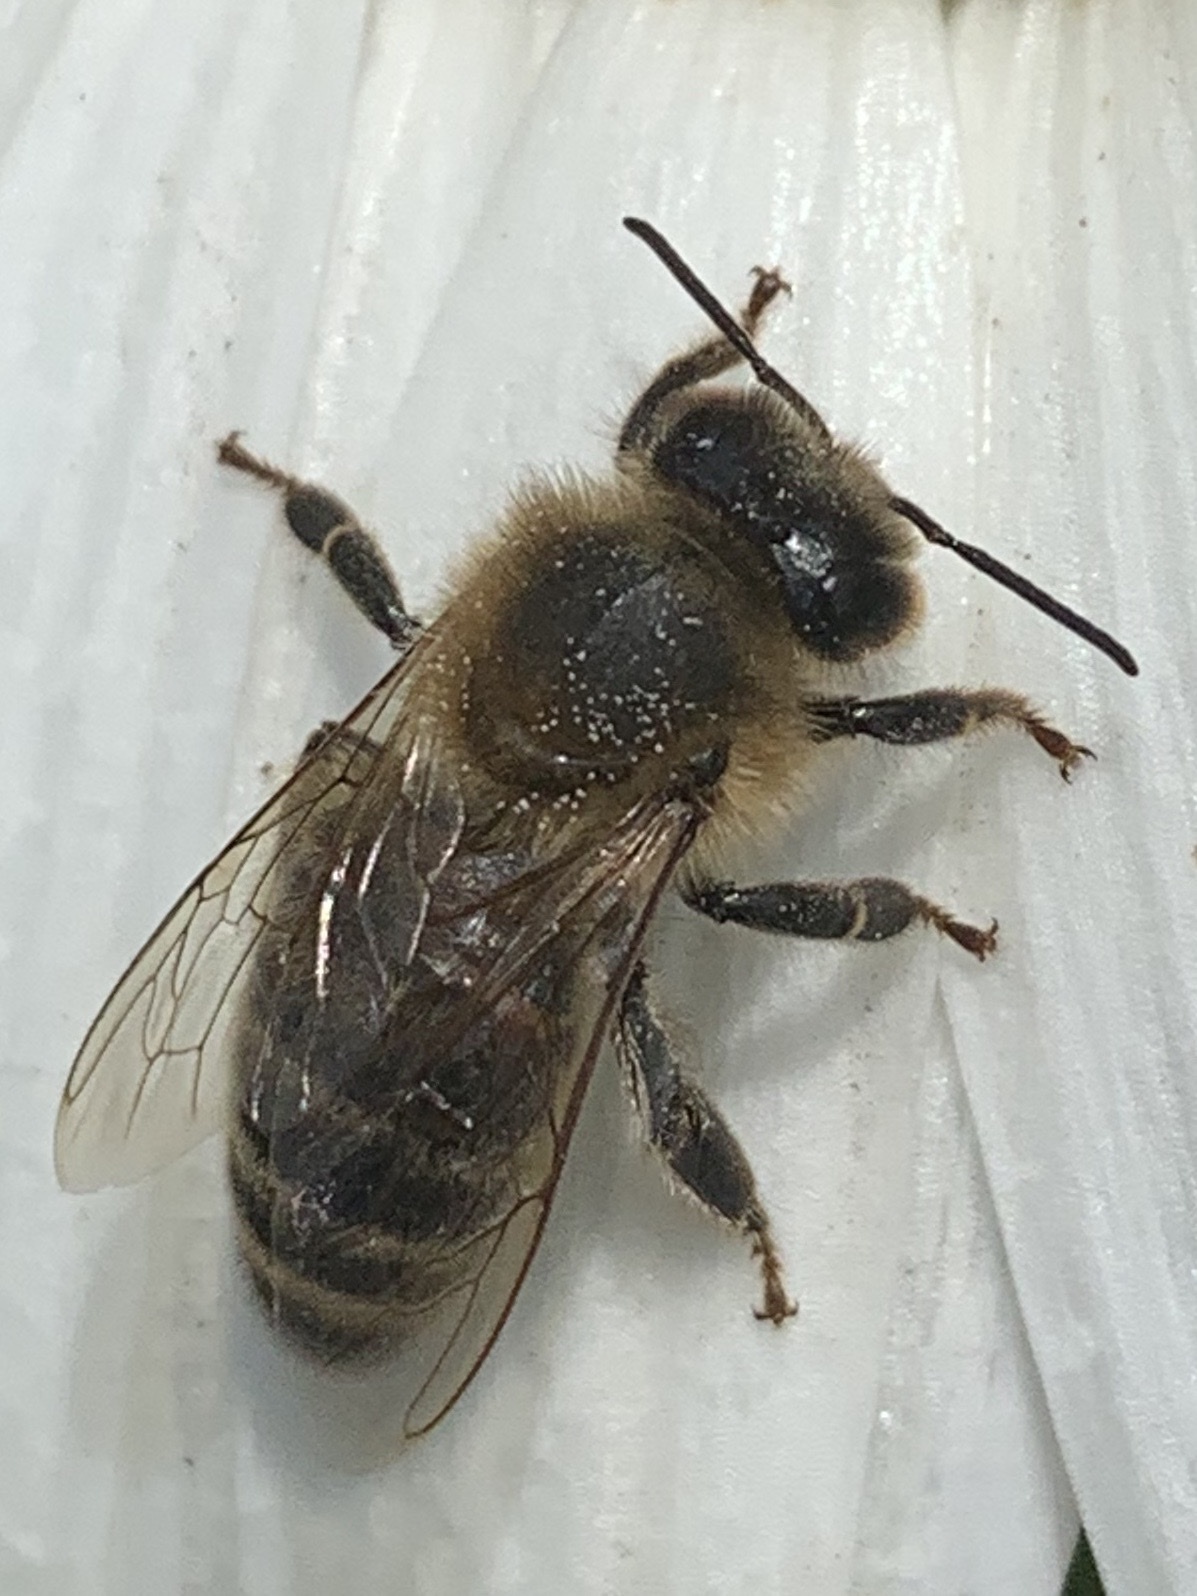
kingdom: Animalia
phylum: Arthropoda
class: Insecta
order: Hymenoptera
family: Apidae
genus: Apis
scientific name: Apis mellifera
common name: Honey bee
